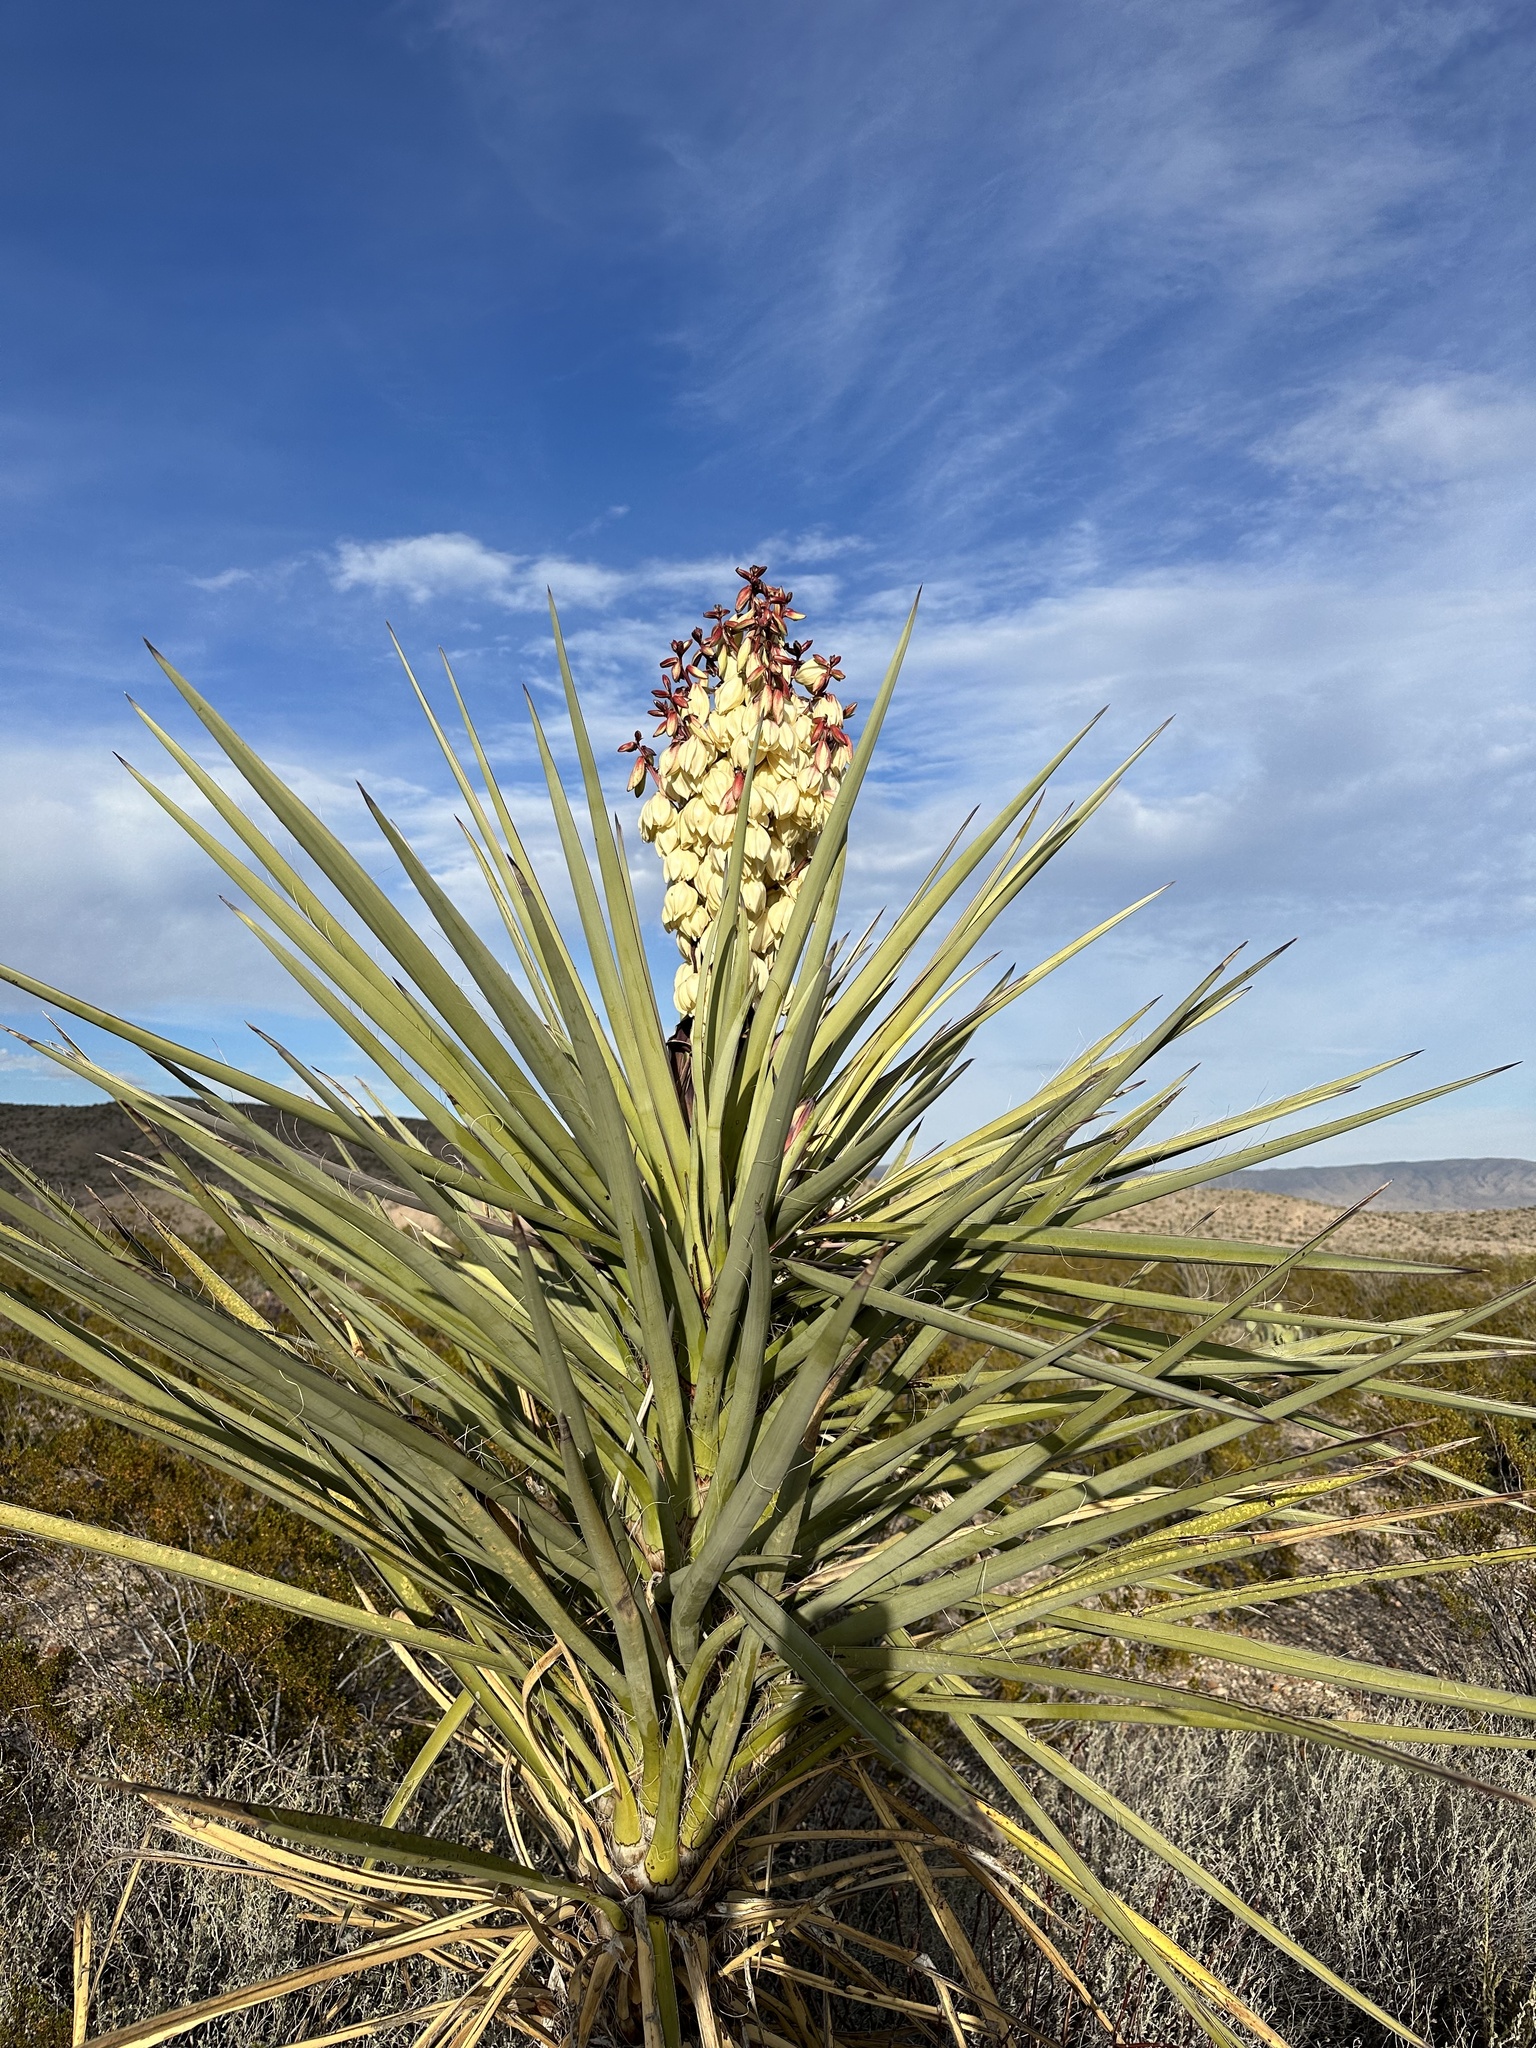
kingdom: Plantae
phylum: Tracheophyta
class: Liliopsida
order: Asparagales
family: Asparagaceae
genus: Yucca
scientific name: Yucca treculiana
